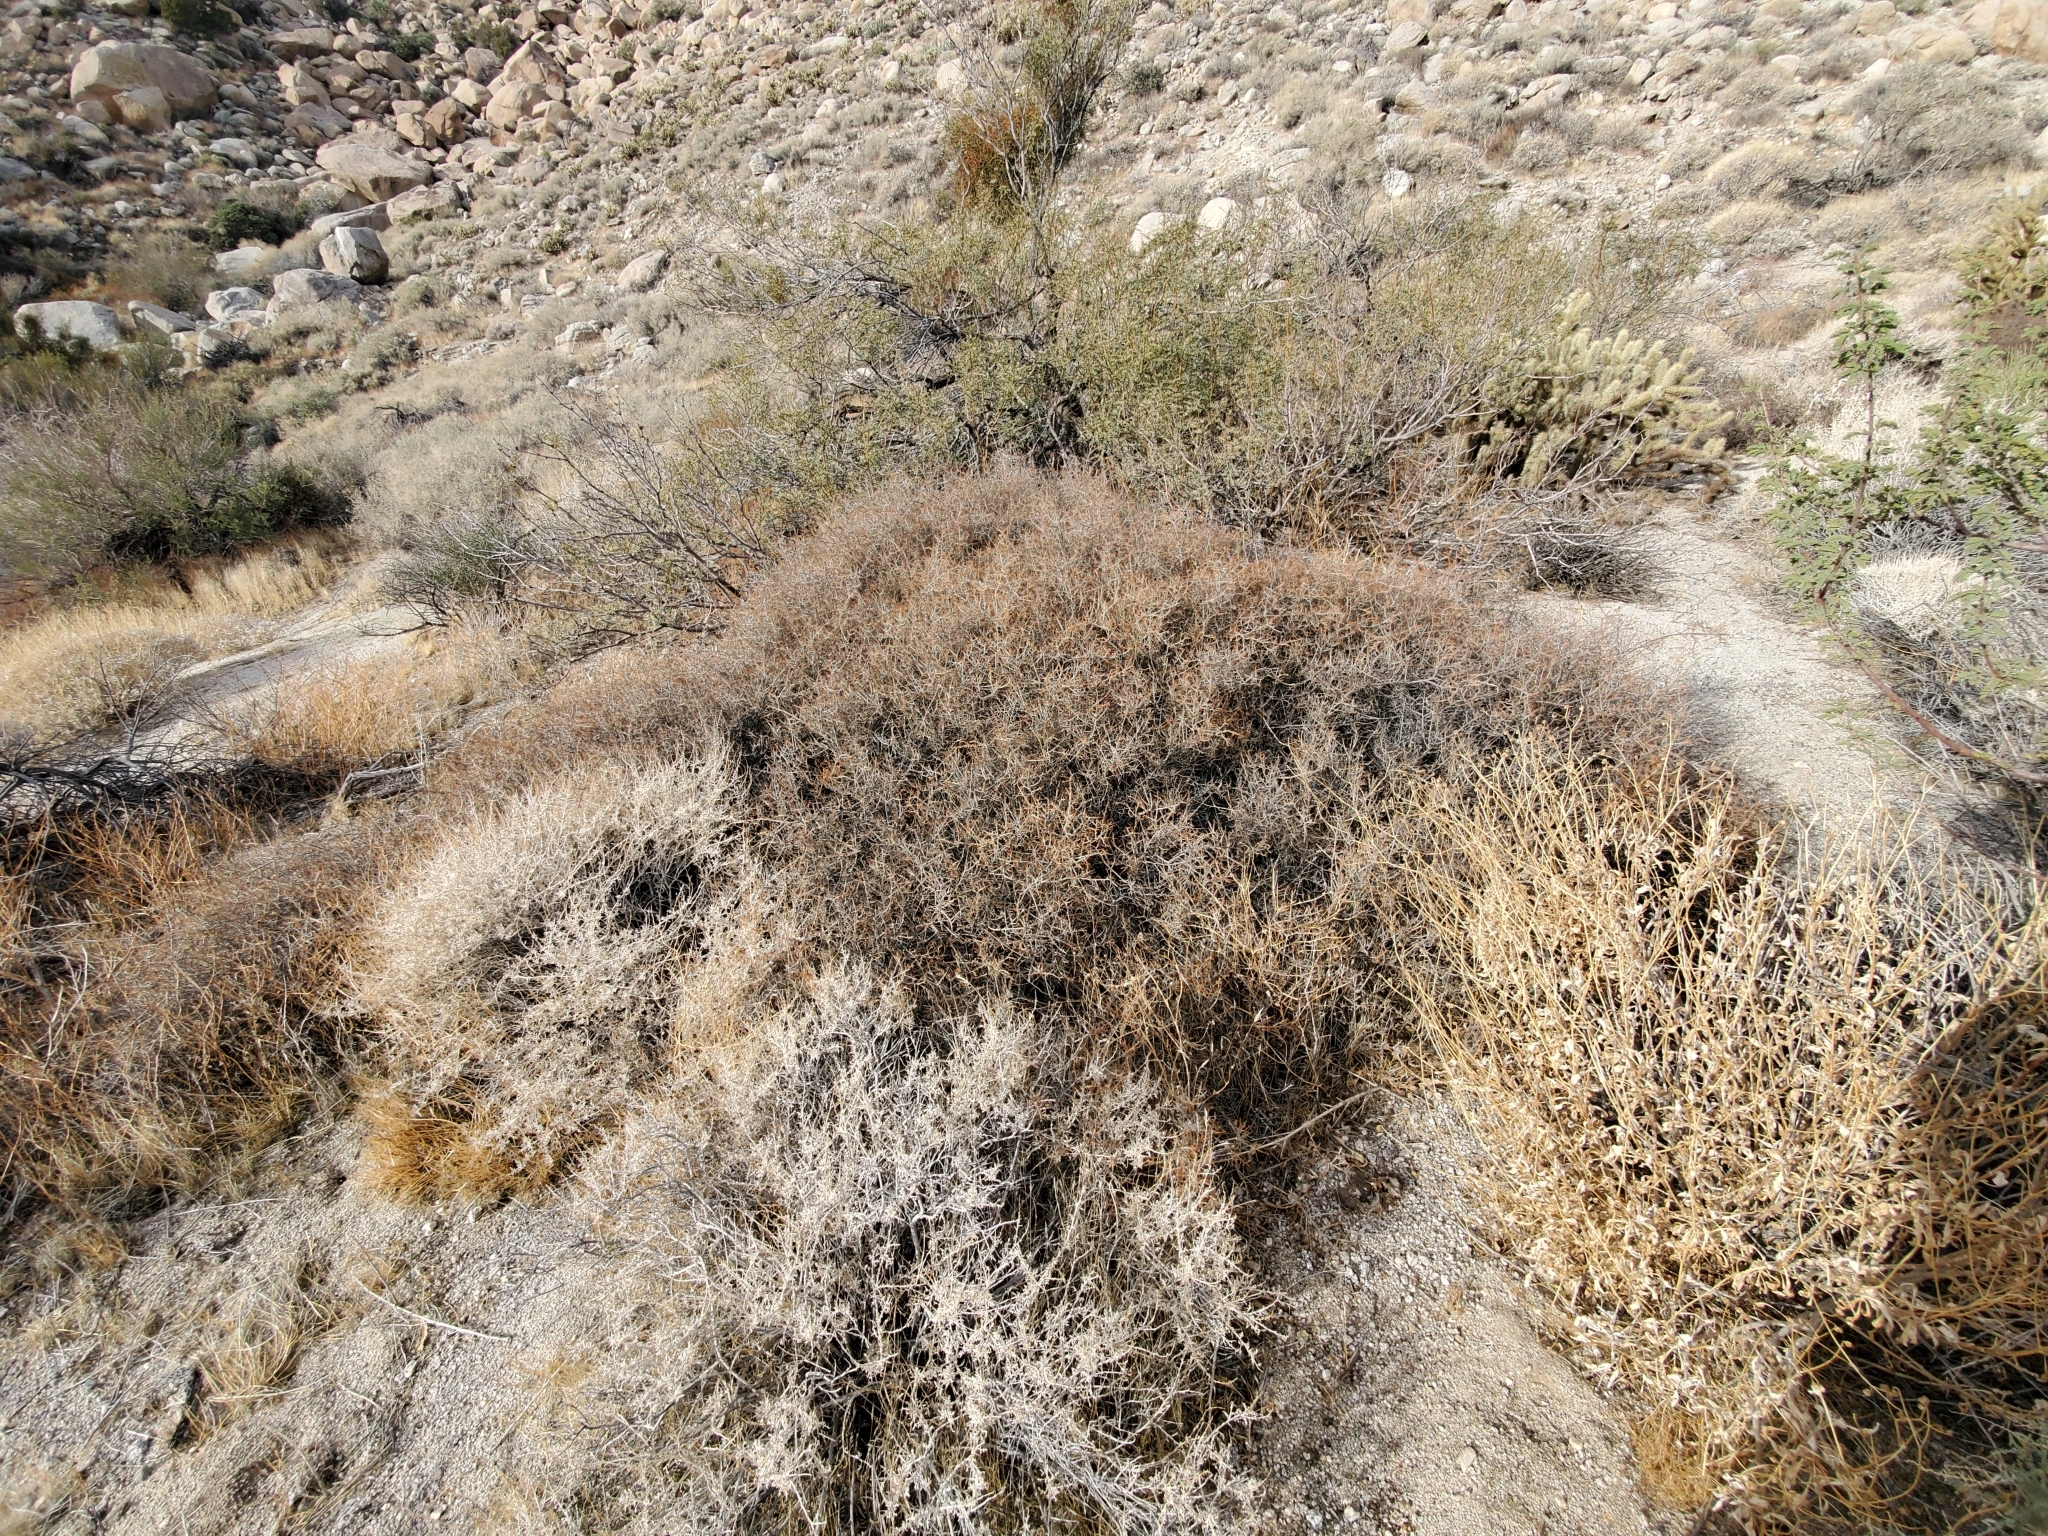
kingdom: Plantae
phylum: Tracheophyta
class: Magnoliopsida
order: Zygophyllales
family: Krameriaceae
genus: Krameria
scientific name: Krameria bicolor
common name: White ratany
